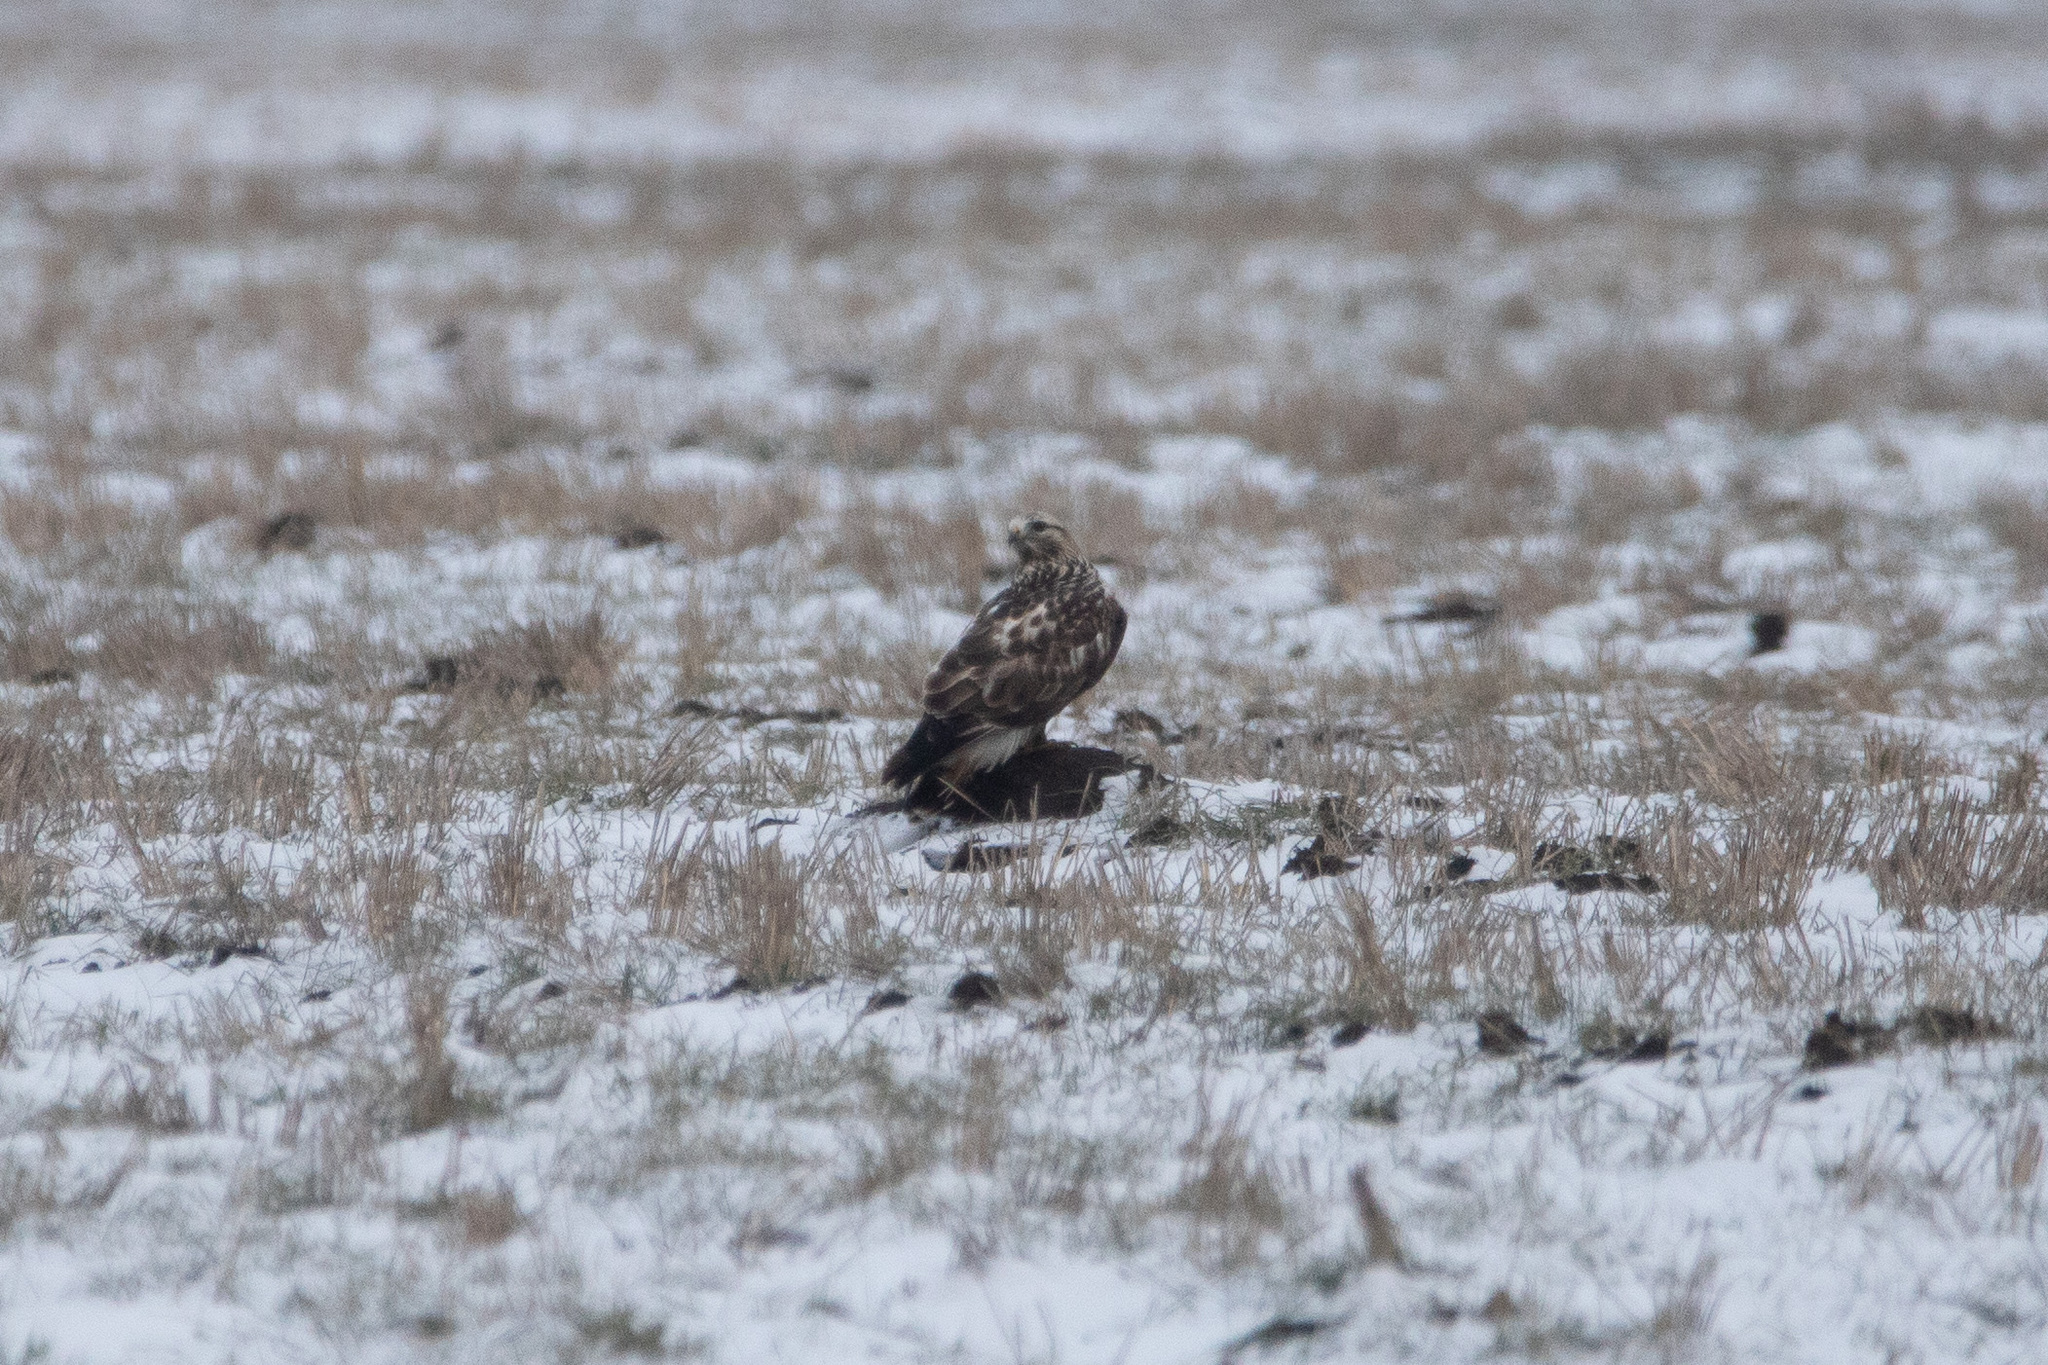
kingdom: Animalia
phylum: Chordata
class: Aves
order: Accipitriformes
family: Accipitridae
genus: Buteo
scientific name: Buteo lagopus
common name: Rough-legged buzzard
